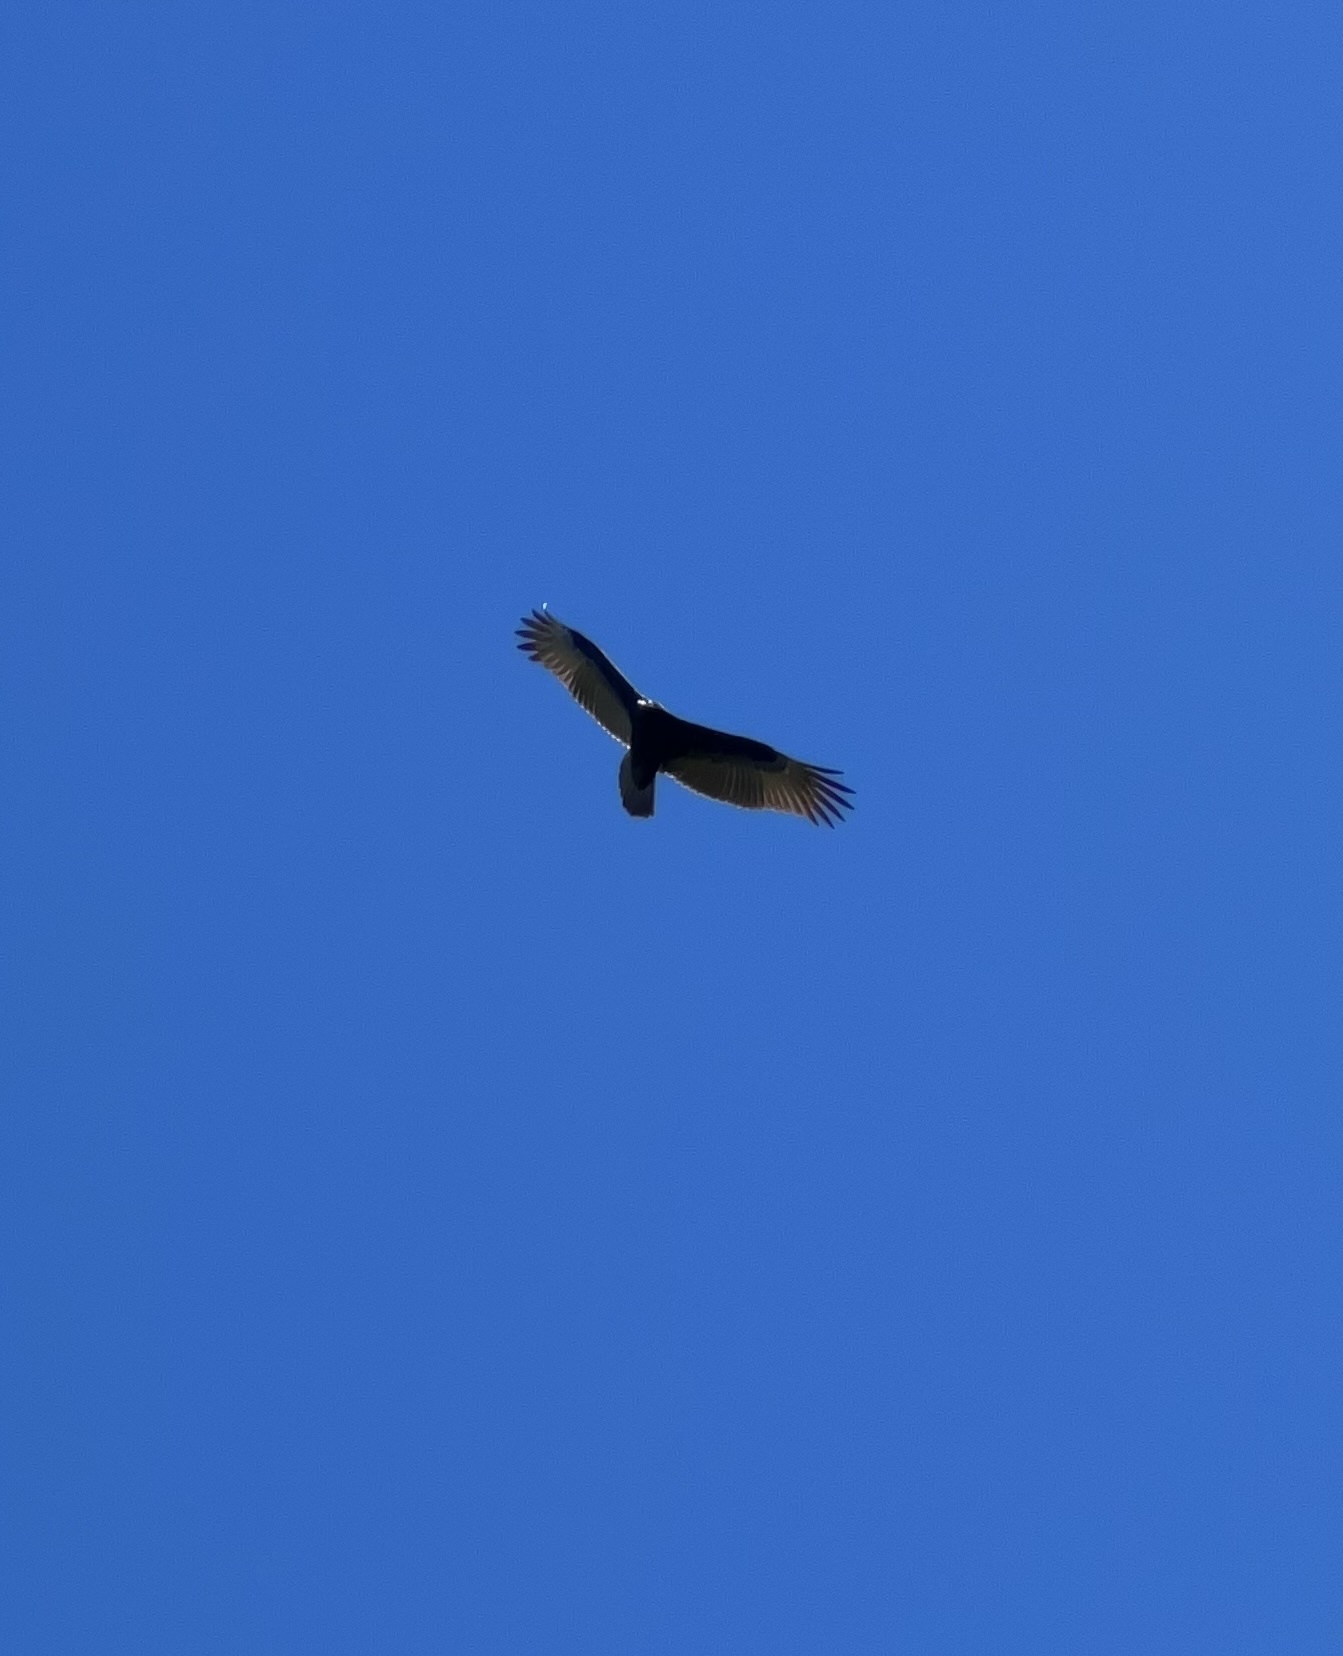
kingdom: Animalia
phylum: Chordata
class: Aves
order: Accipitriformes
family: Cathartidae
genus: Cathartes
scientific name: Cathartes aura
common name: Turkey vulture
